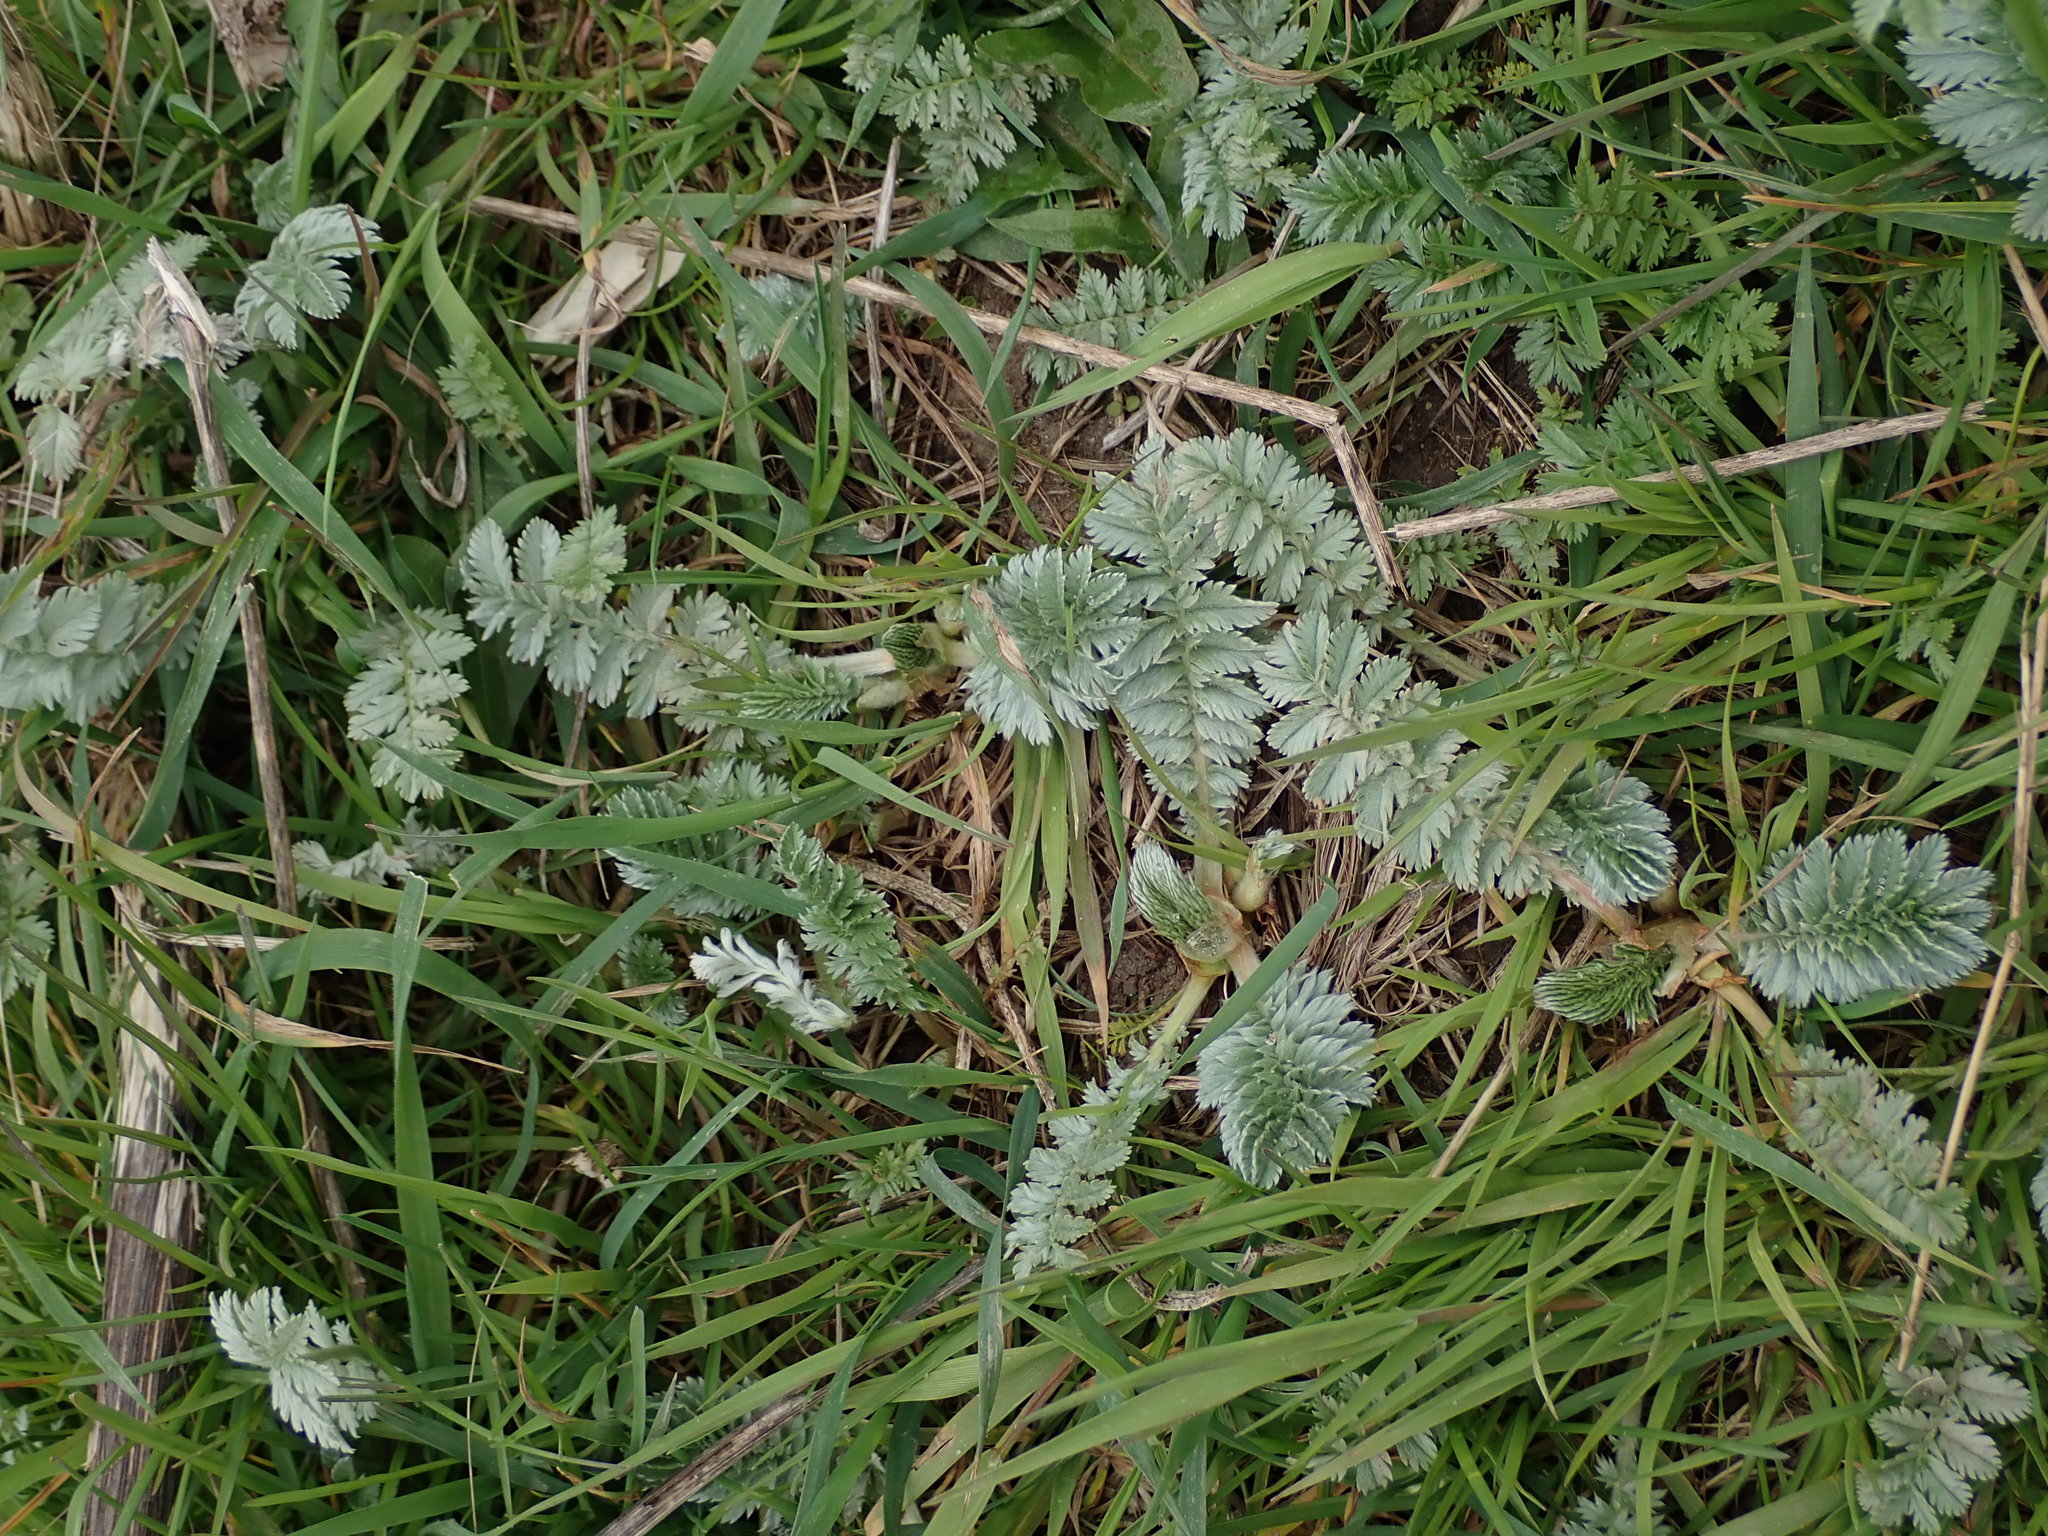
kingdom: Plantae
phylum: Tracheophyta
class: Magnoliopsida
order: Rosales
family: Rosaceae
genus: Argentina
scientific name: Argentina anserina
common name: Common silverweed
